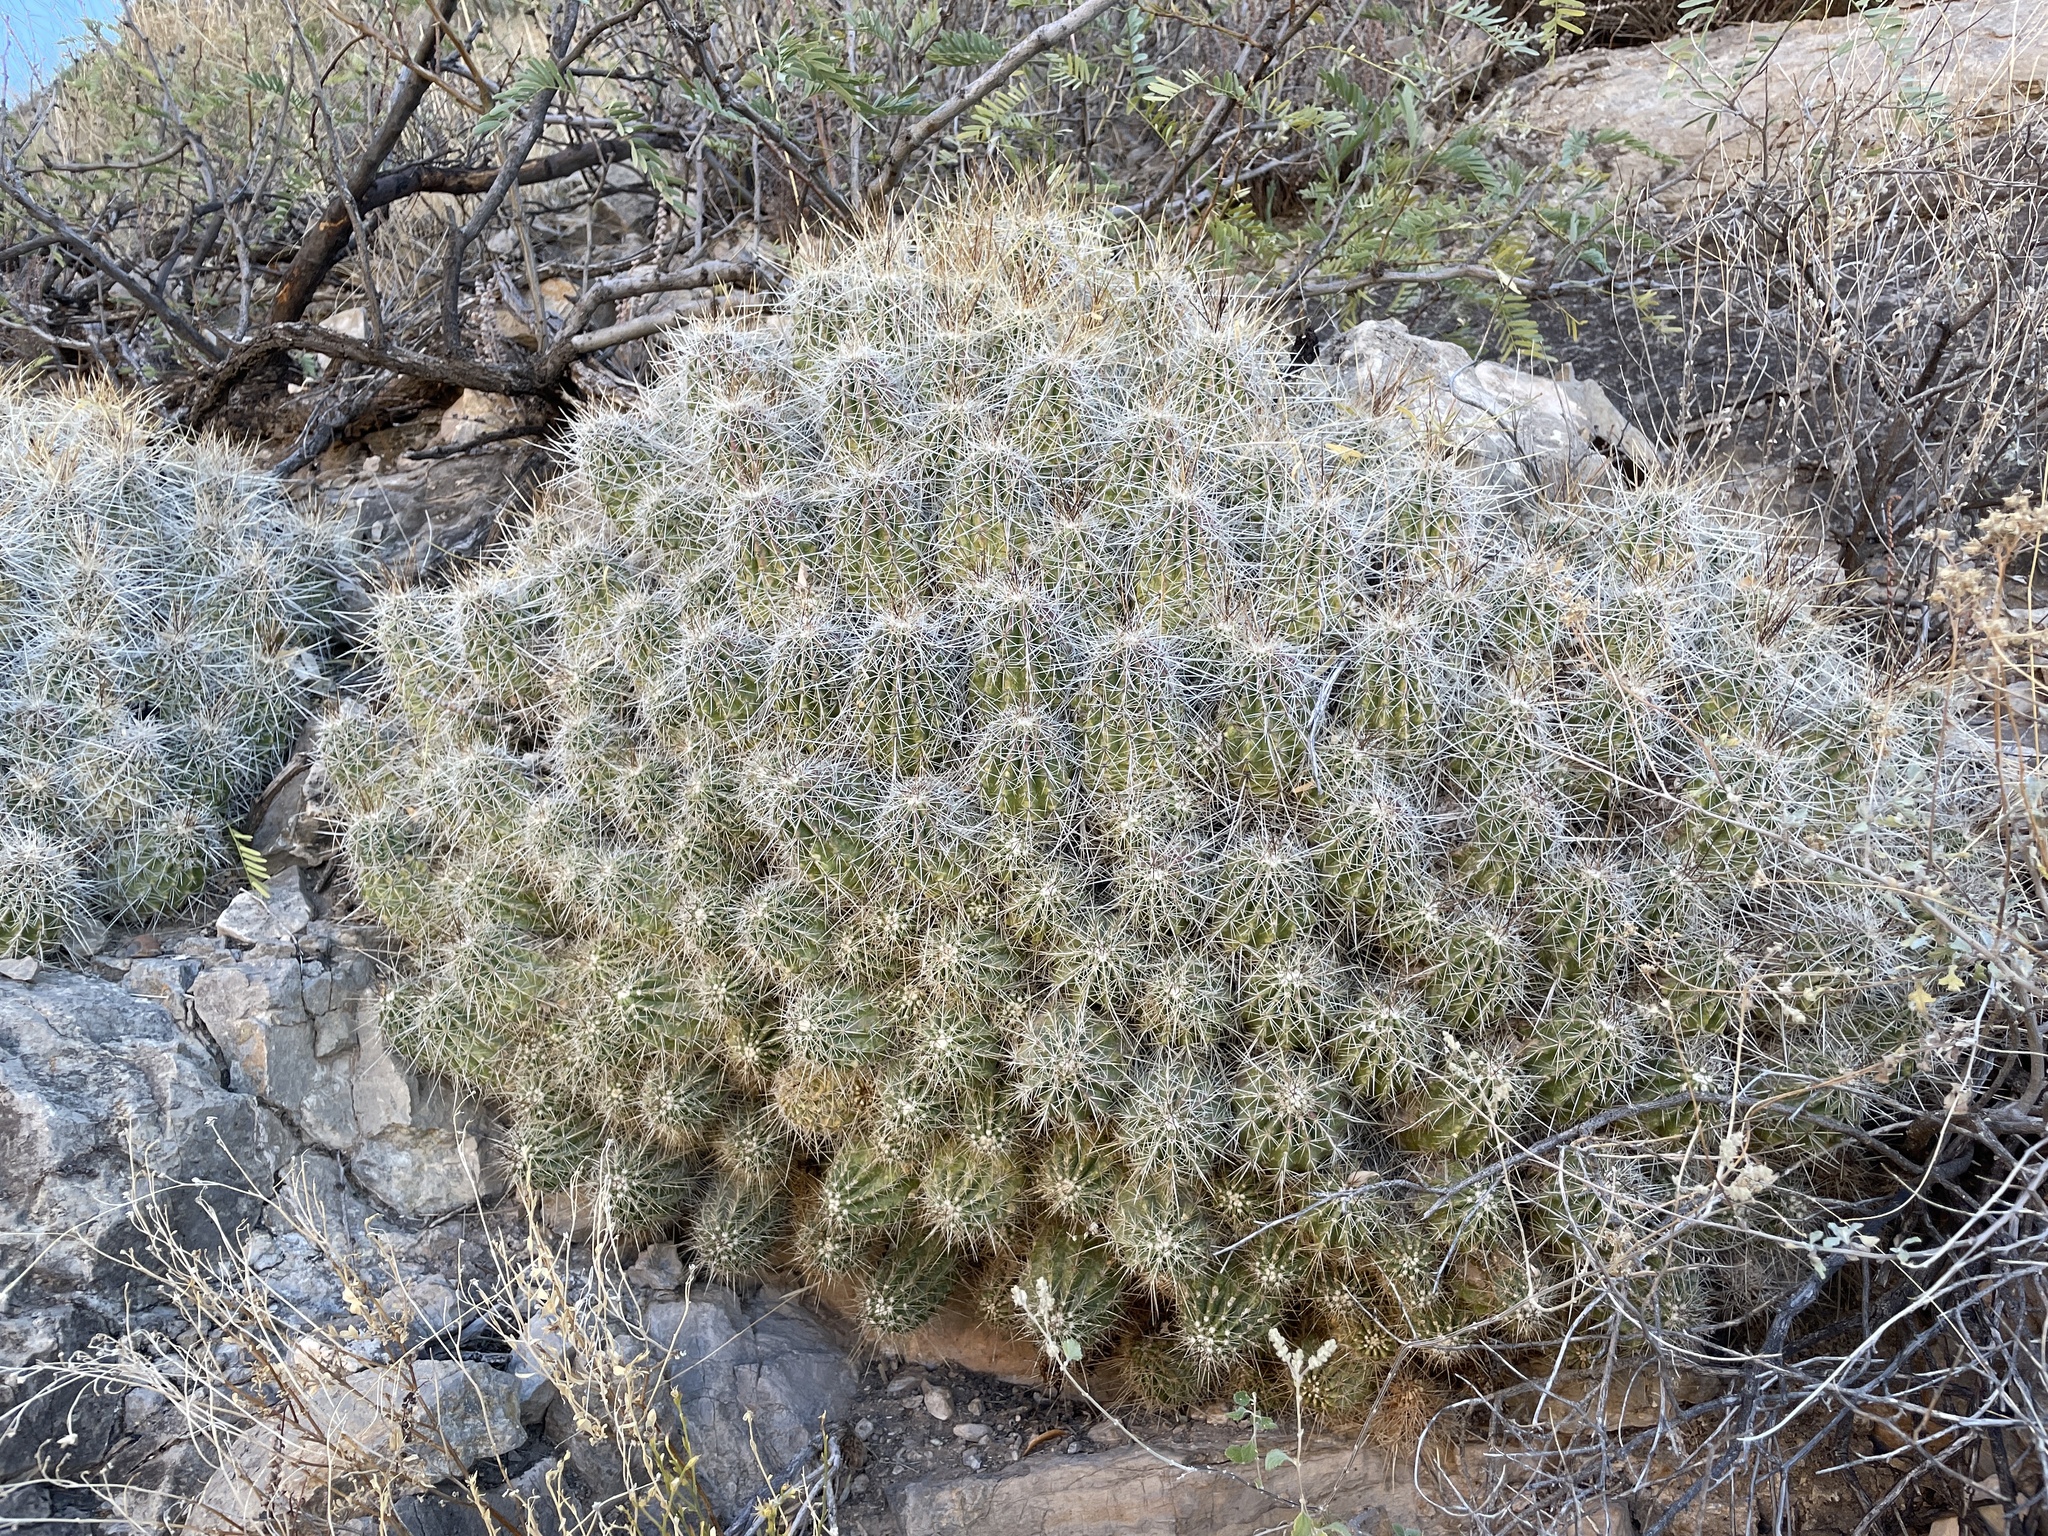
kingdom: Plantae
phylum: Tracheophyta
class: Magnoliopsida
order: Caryophyllales
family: Cactaceae
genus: Echinocereus
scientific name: Echinocereus stramineus
